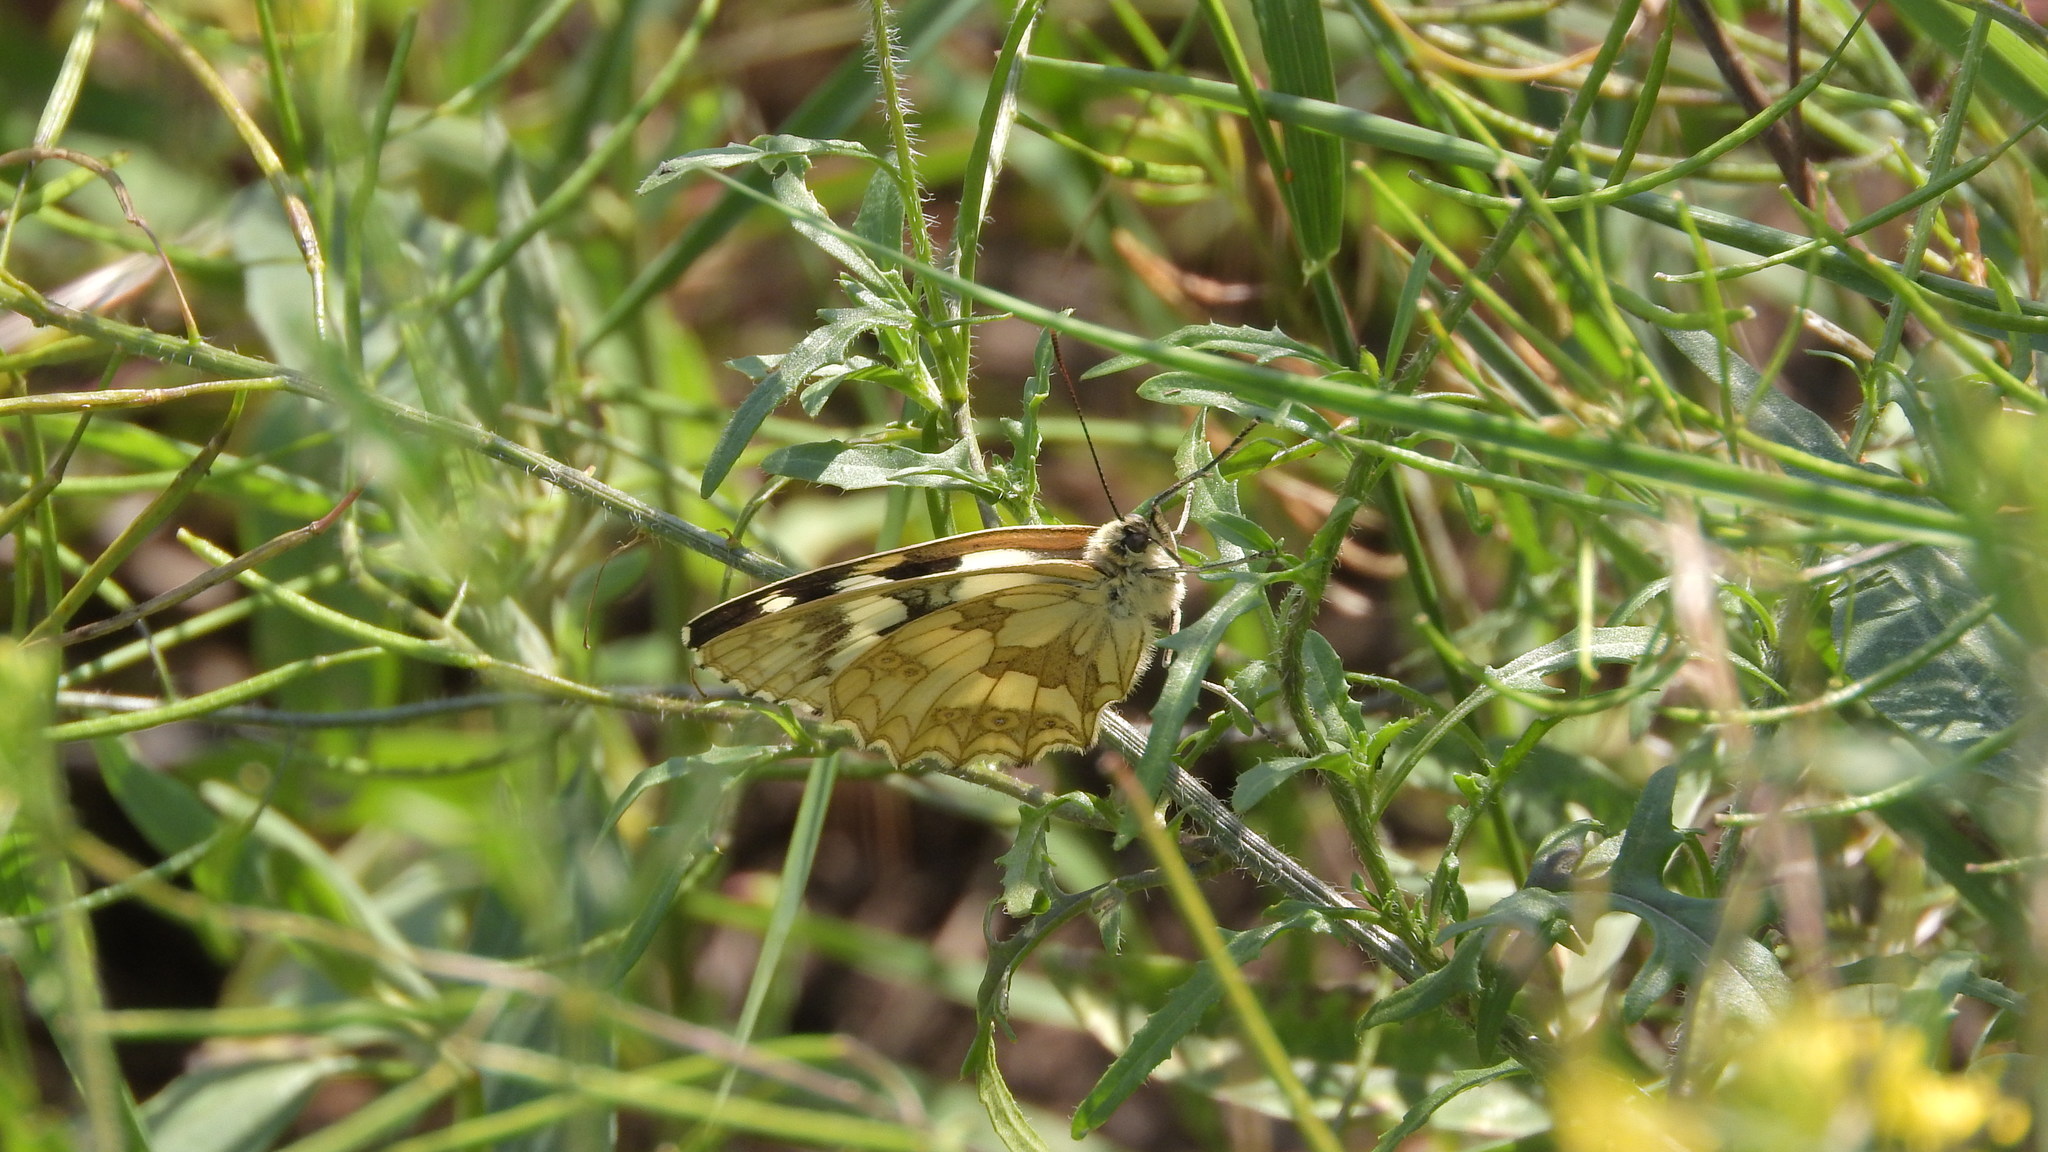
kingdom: Animalia
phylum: Arthropoda
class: Insecta
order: Lepidoptera
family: Nymphalidae
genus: Melanargia
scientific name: Melanargia galathea
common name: Marbled white
